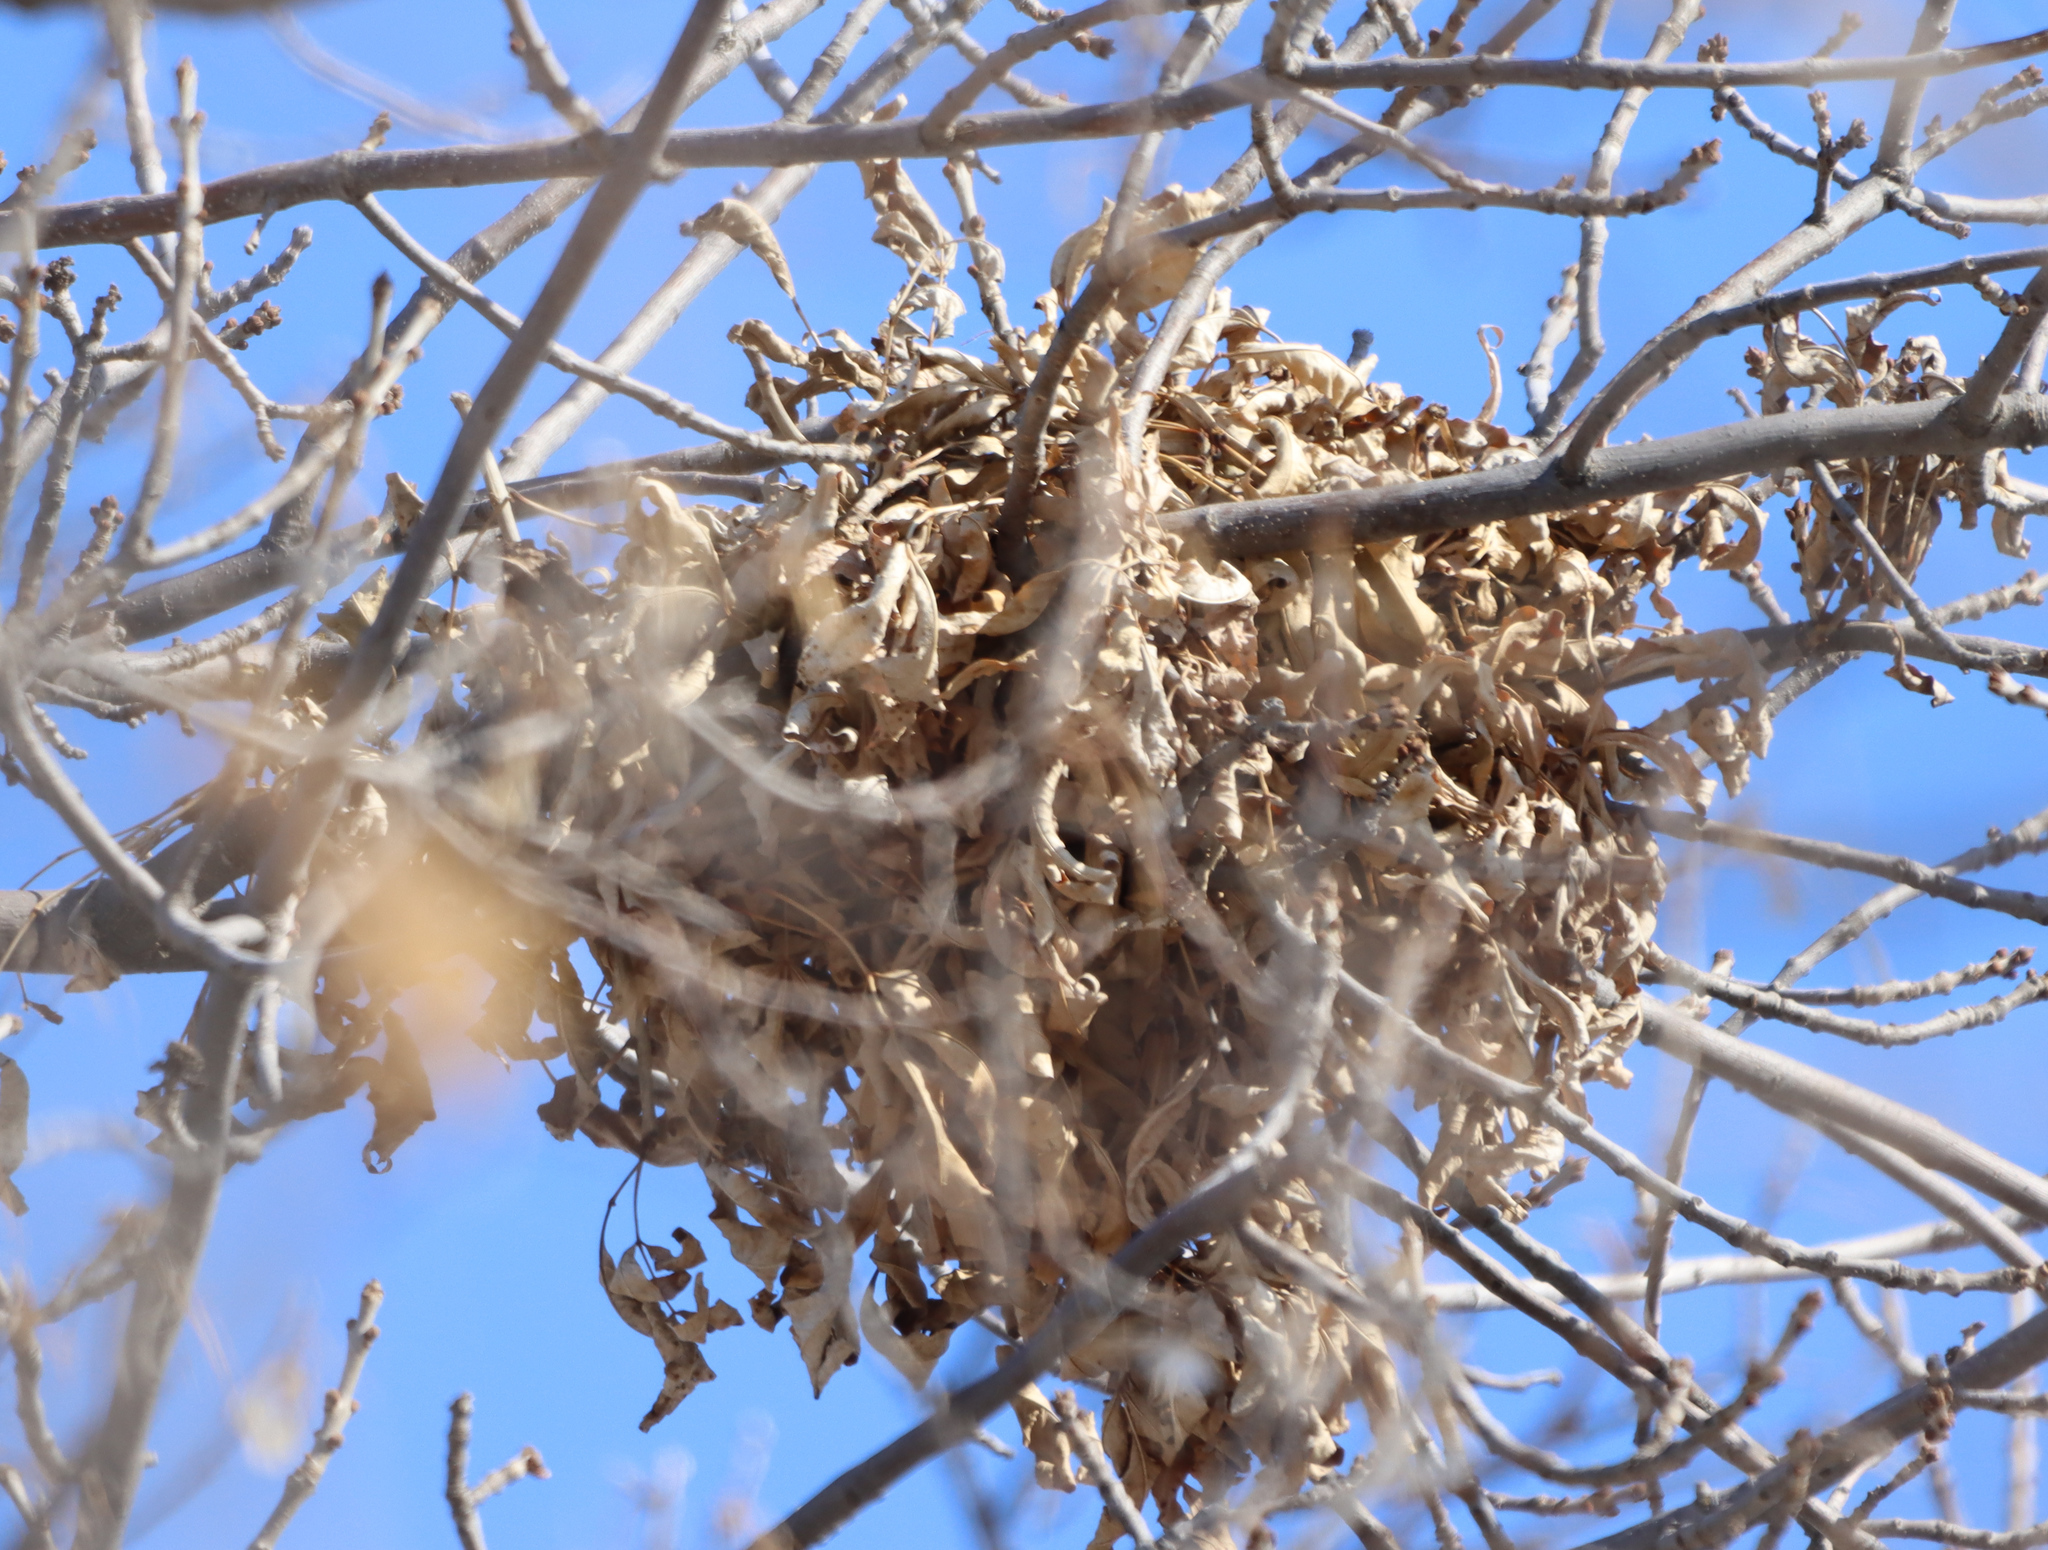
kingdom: Animalia
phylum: Chordata
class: Mammalia
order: Rodentia
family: Sciuridae
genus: Sciurus
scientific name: Sciurus carolinensis
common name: Eastern gray squirrel
